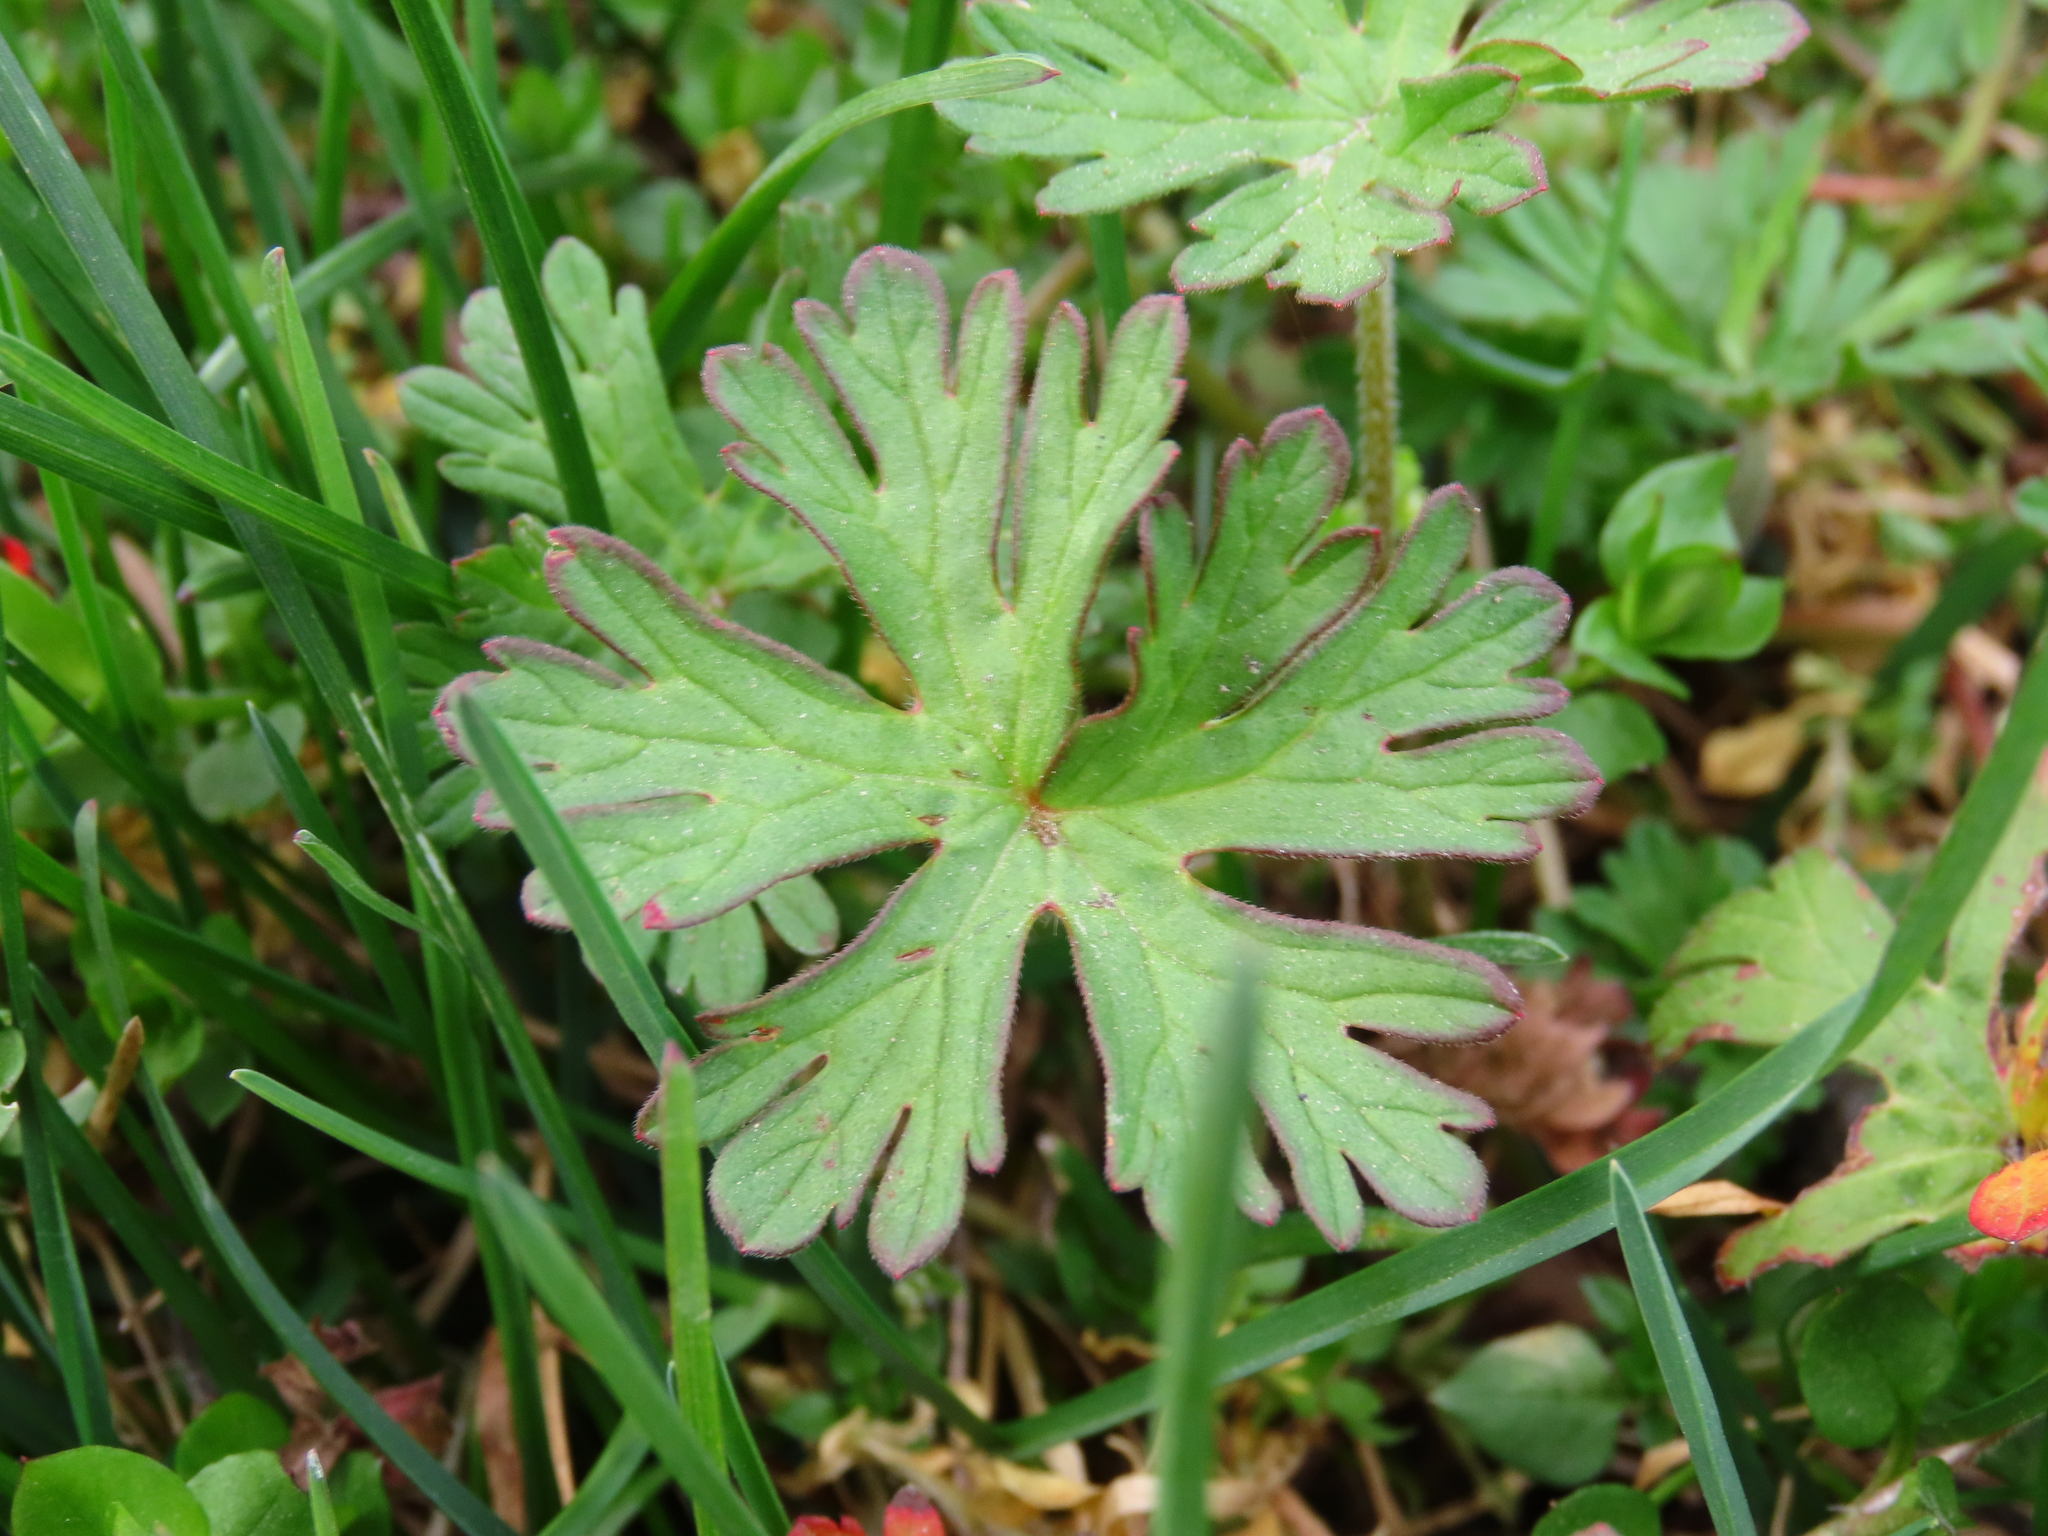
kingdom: Plantae
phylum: Tracheophyta
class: Magnoliopsida
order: Geraniales
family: Geraniaceae
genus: Geranium
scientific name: Geranium dissectum
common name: Cut-leaved crane's-bill
